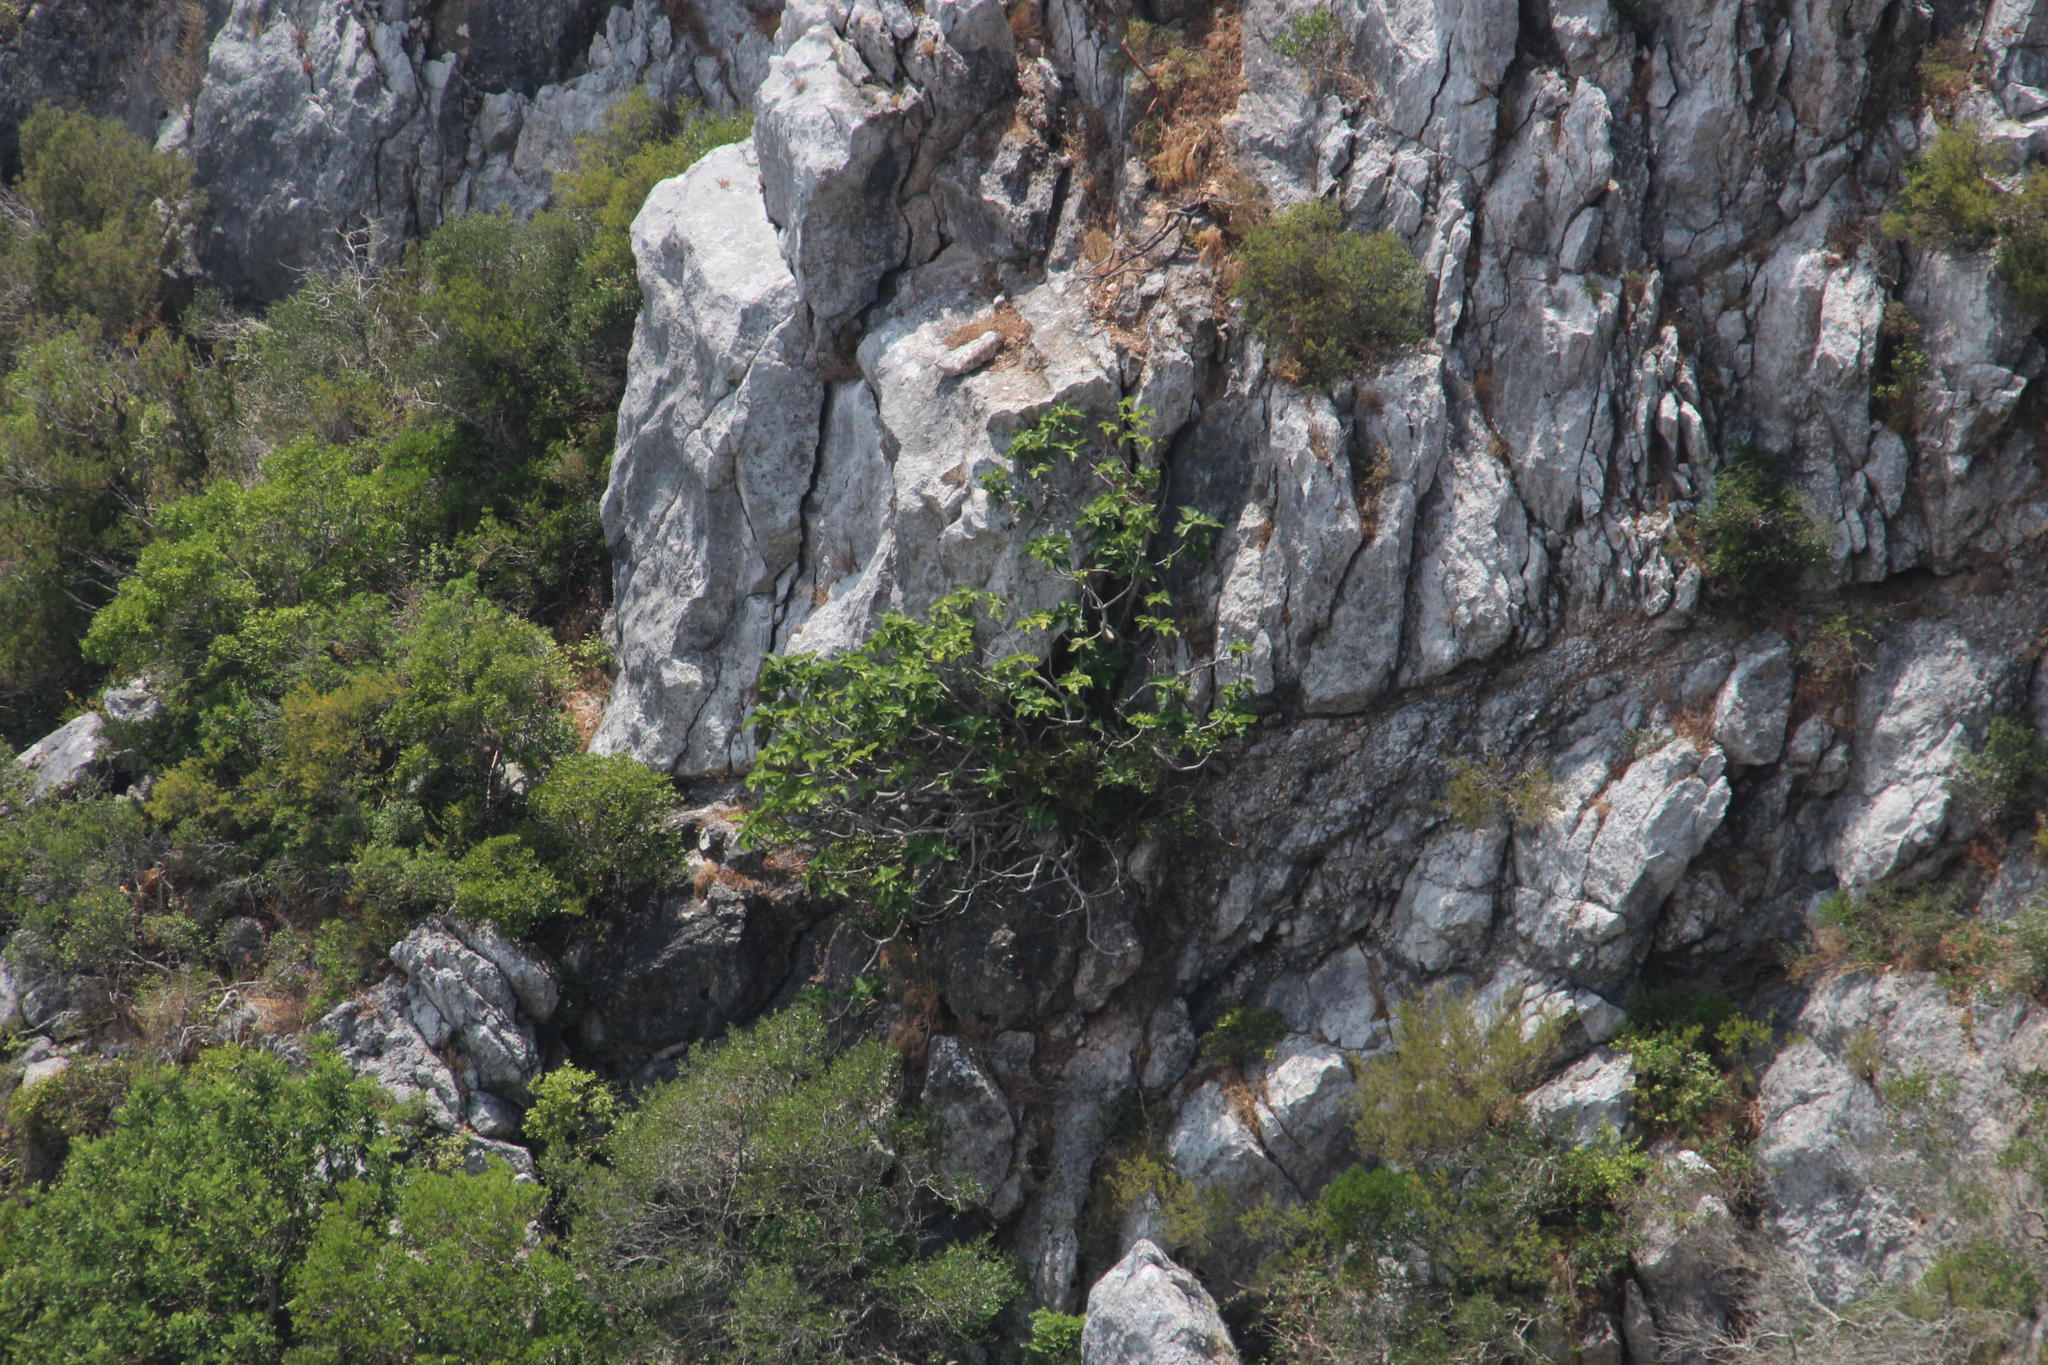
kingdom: Plantae
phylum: Tracheophyta
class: Magnoliopsida
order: Rosales
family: Moraceae
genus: Ficus
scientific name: Ficus carica
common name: Fig
